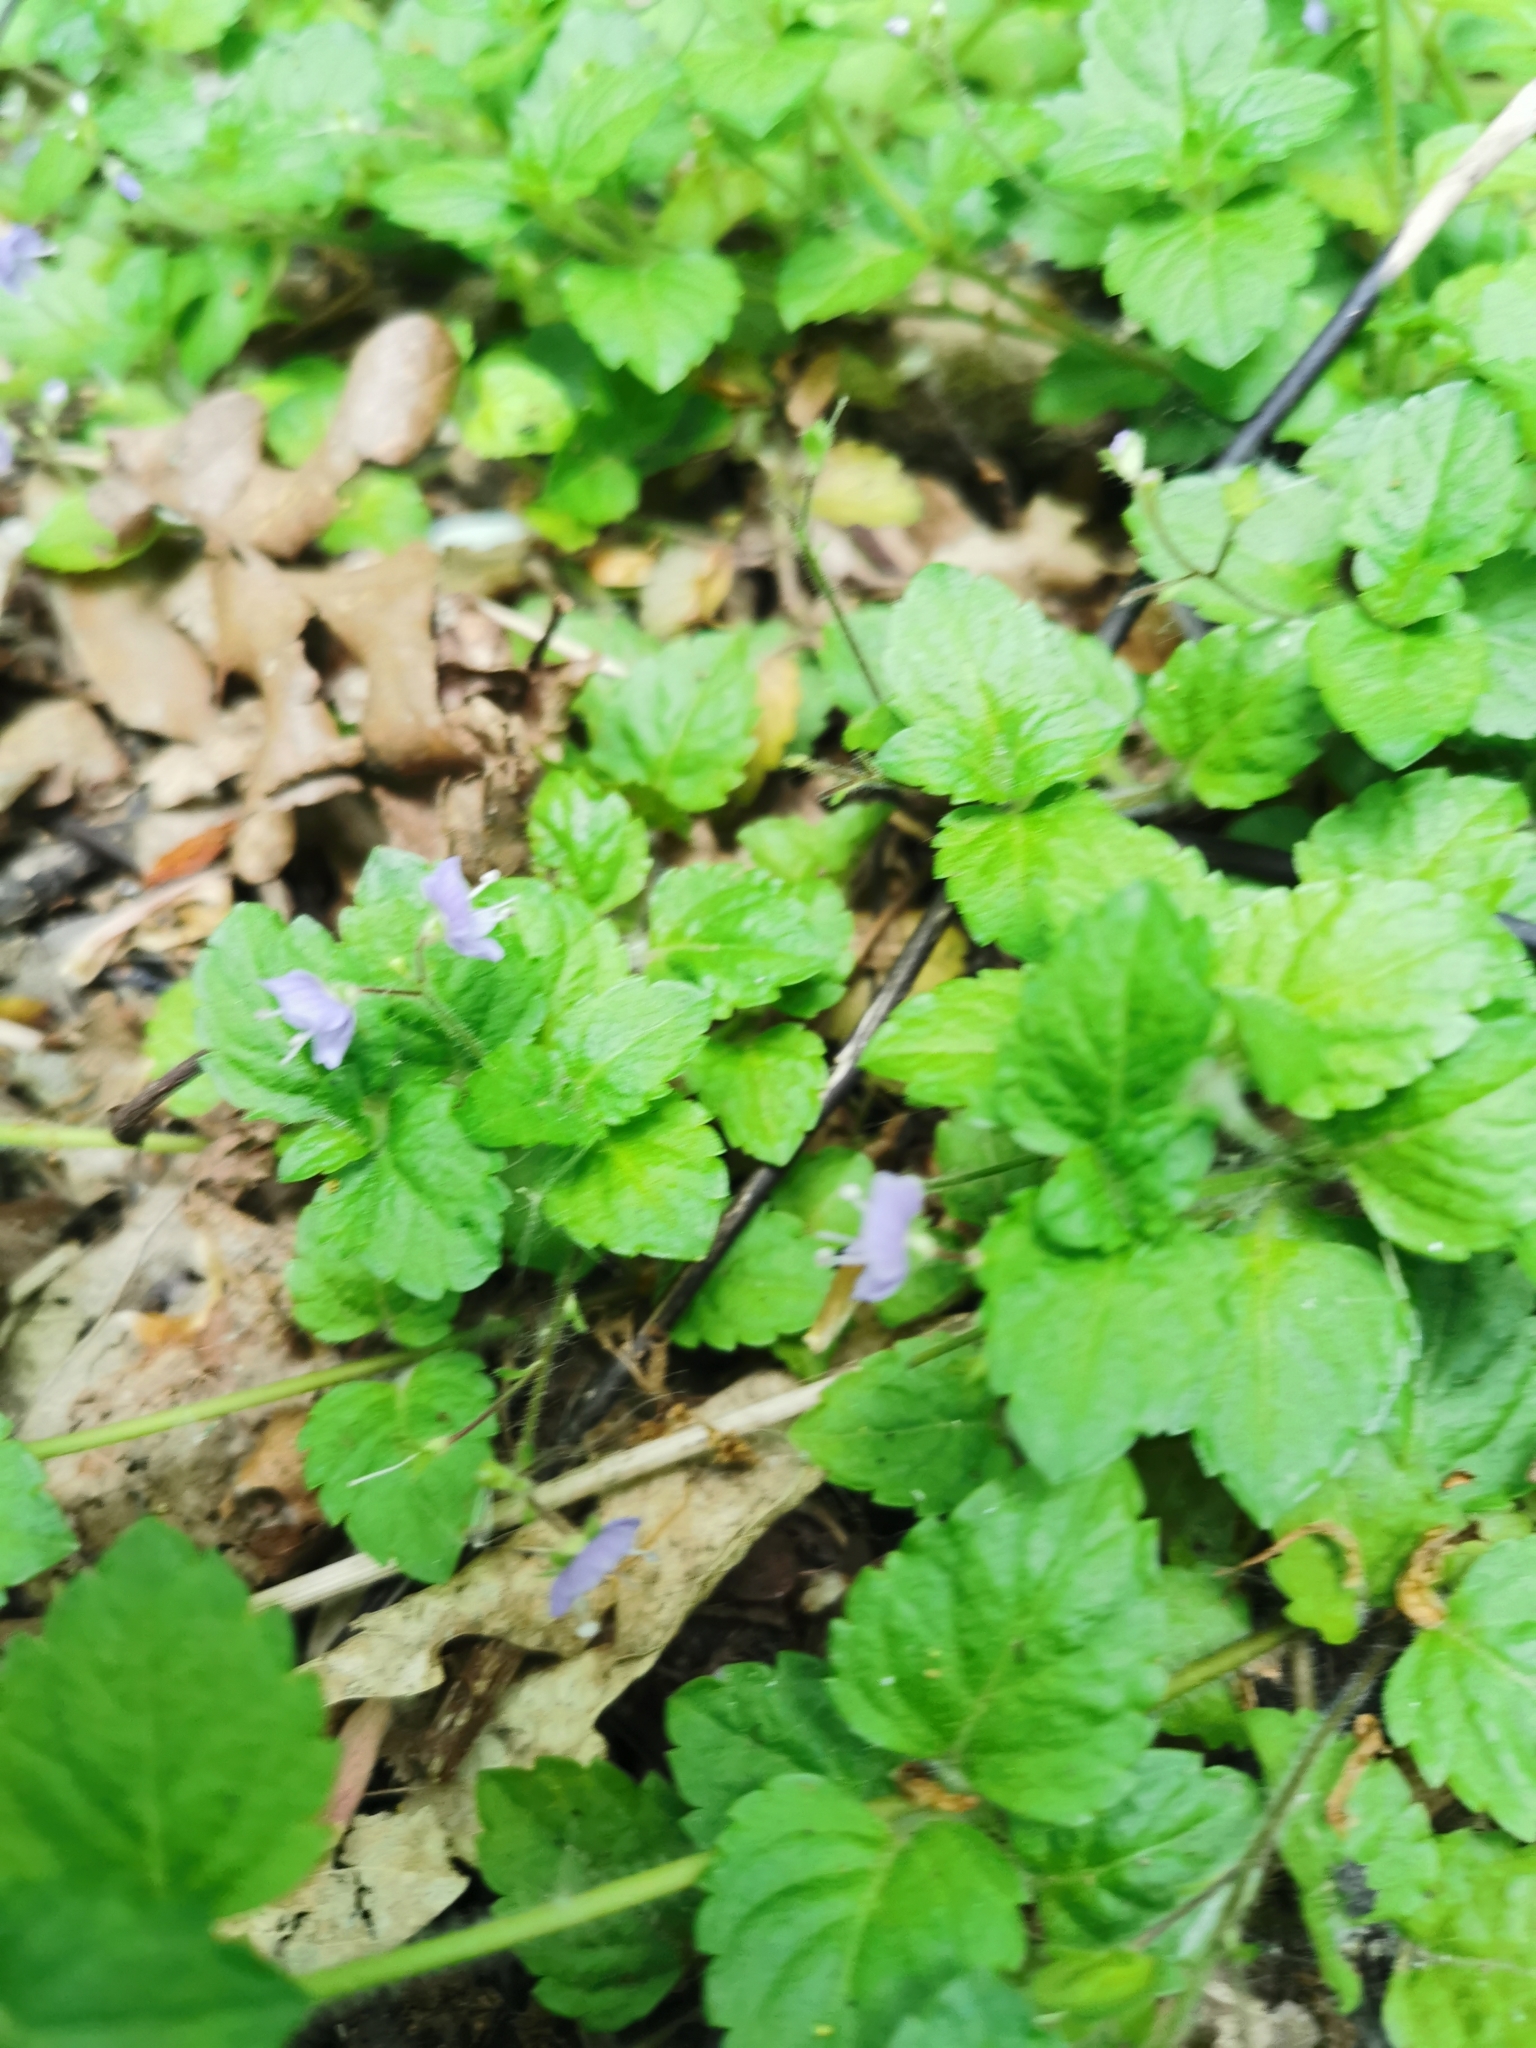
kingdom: Plantae
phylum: Tracheophyta
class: Magnoliopsida
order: Lamiales
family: Plantaginaceae
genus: Veronica
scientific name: Veronica montana
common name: Wood speedwell
